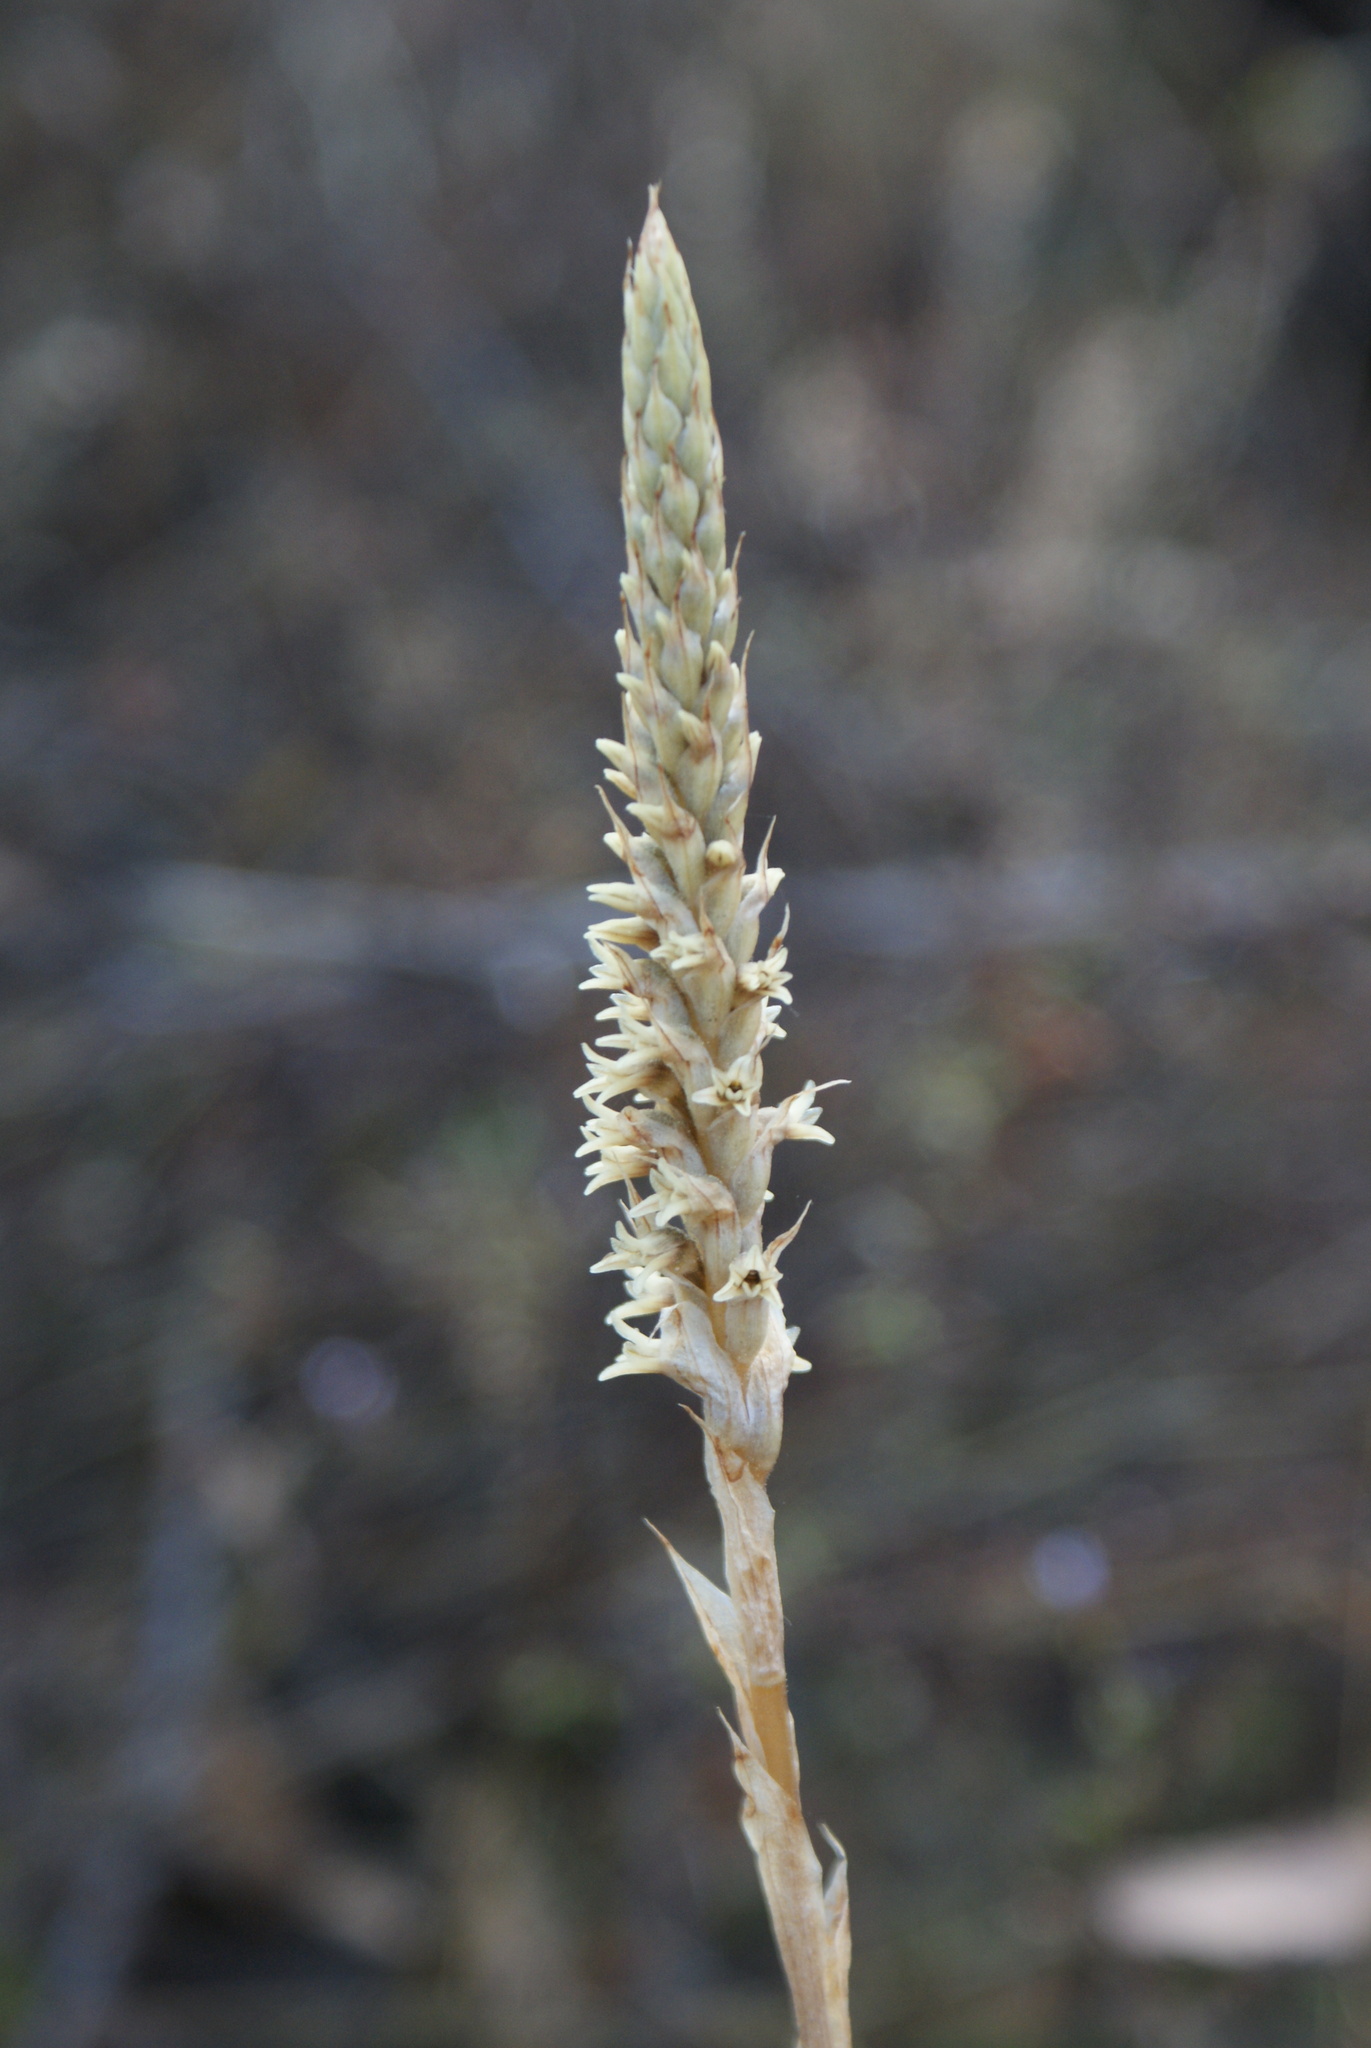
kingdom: Plantae
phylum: Tracheophyta
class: Liliopsida
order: Asparagales
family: Orchidaceae
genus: Aulosepalum
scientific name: Aulosepalum pyramidale
